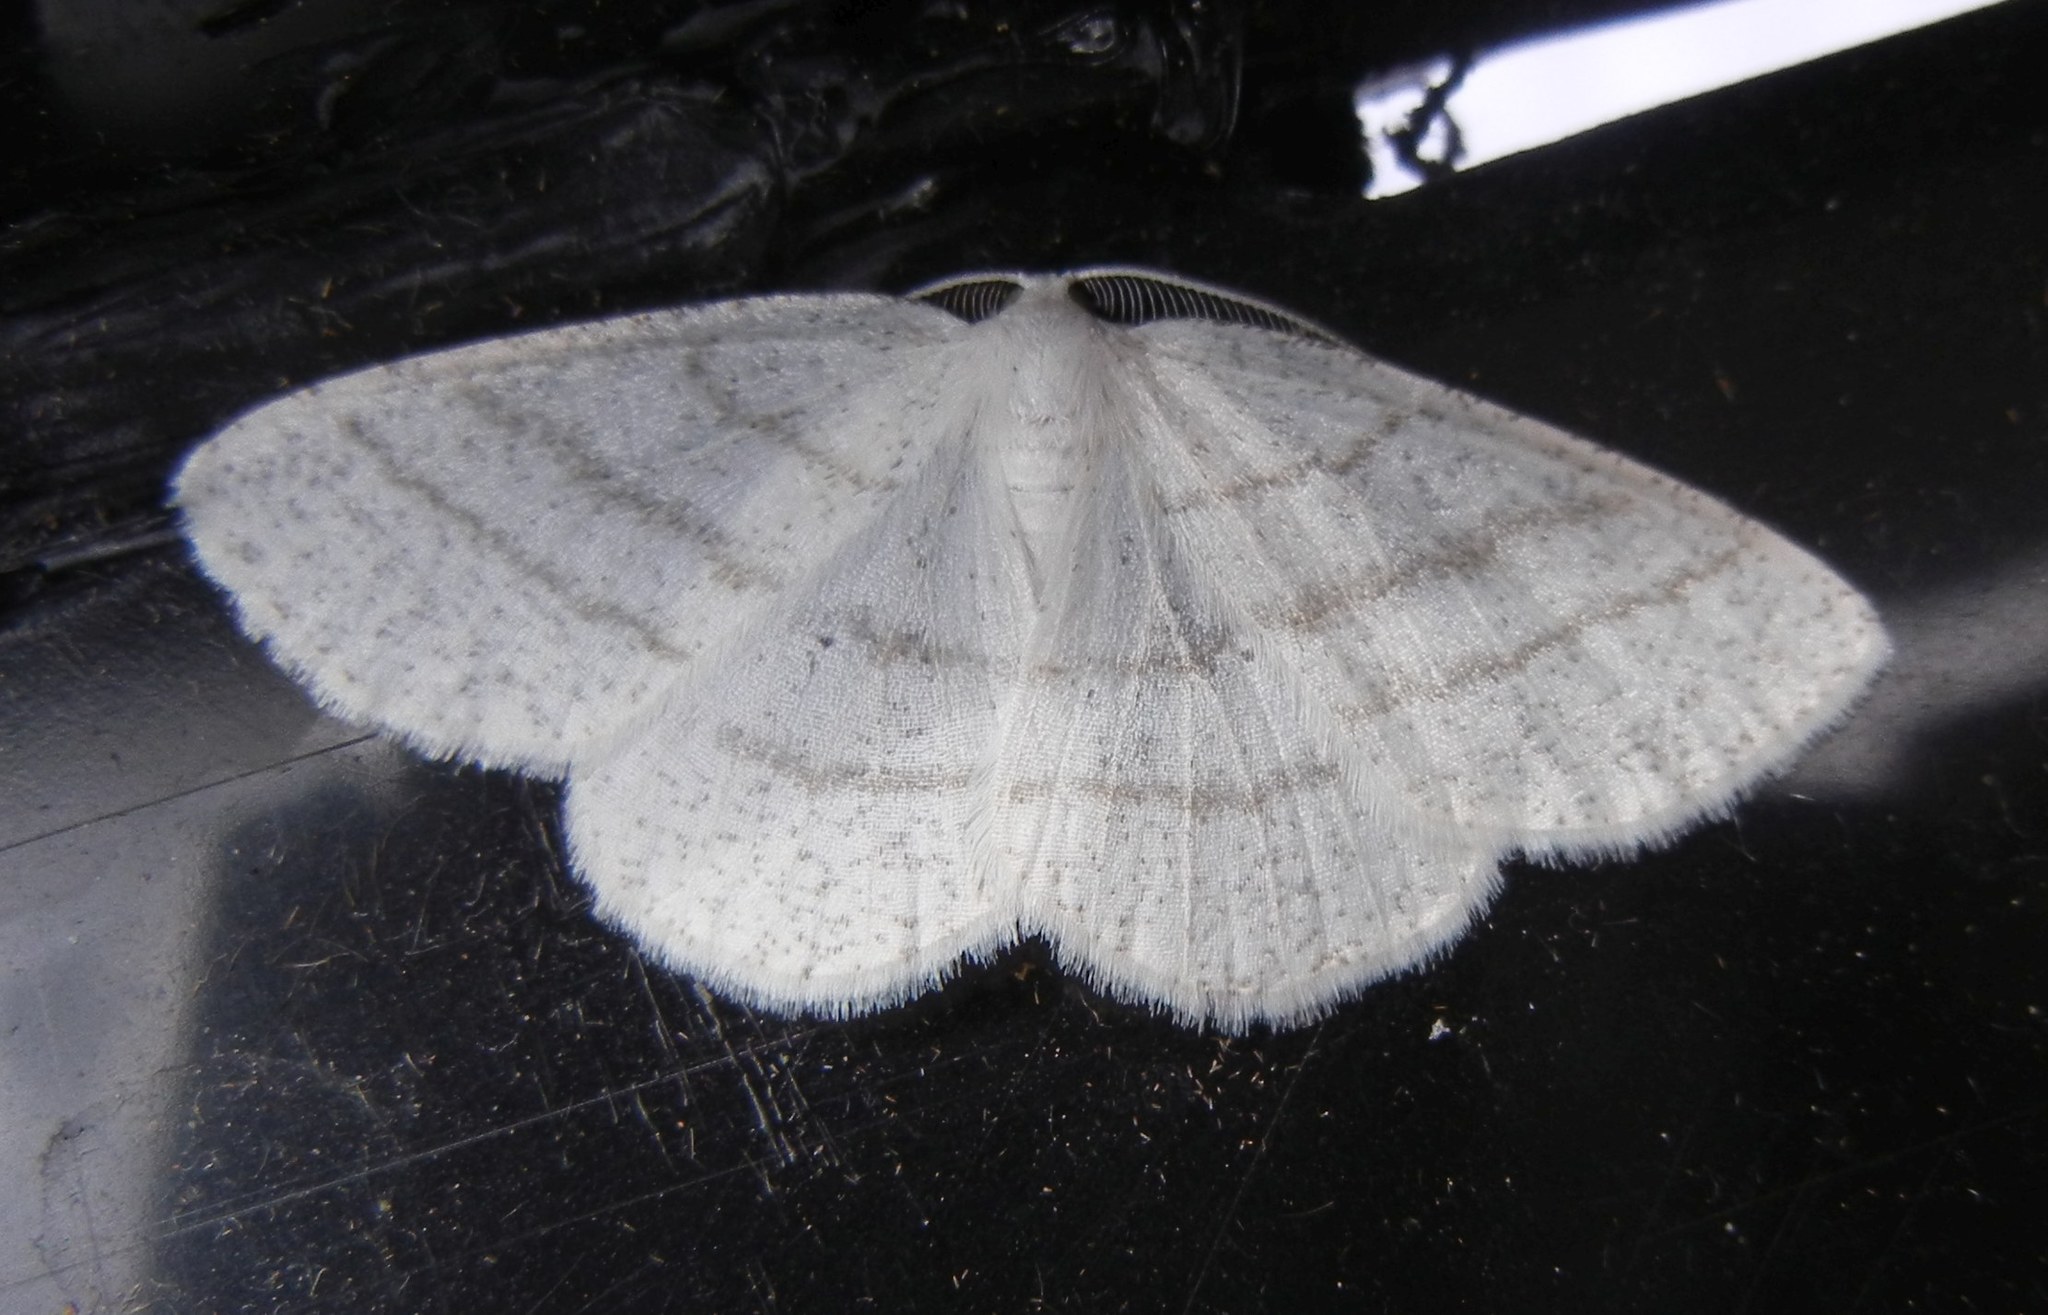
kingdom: Animalia
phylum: Arthropoda
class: Insecta
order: Lepidoptera
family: Geometridae
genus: Cabera
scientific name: Cabera pusaria
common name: Common white wave
